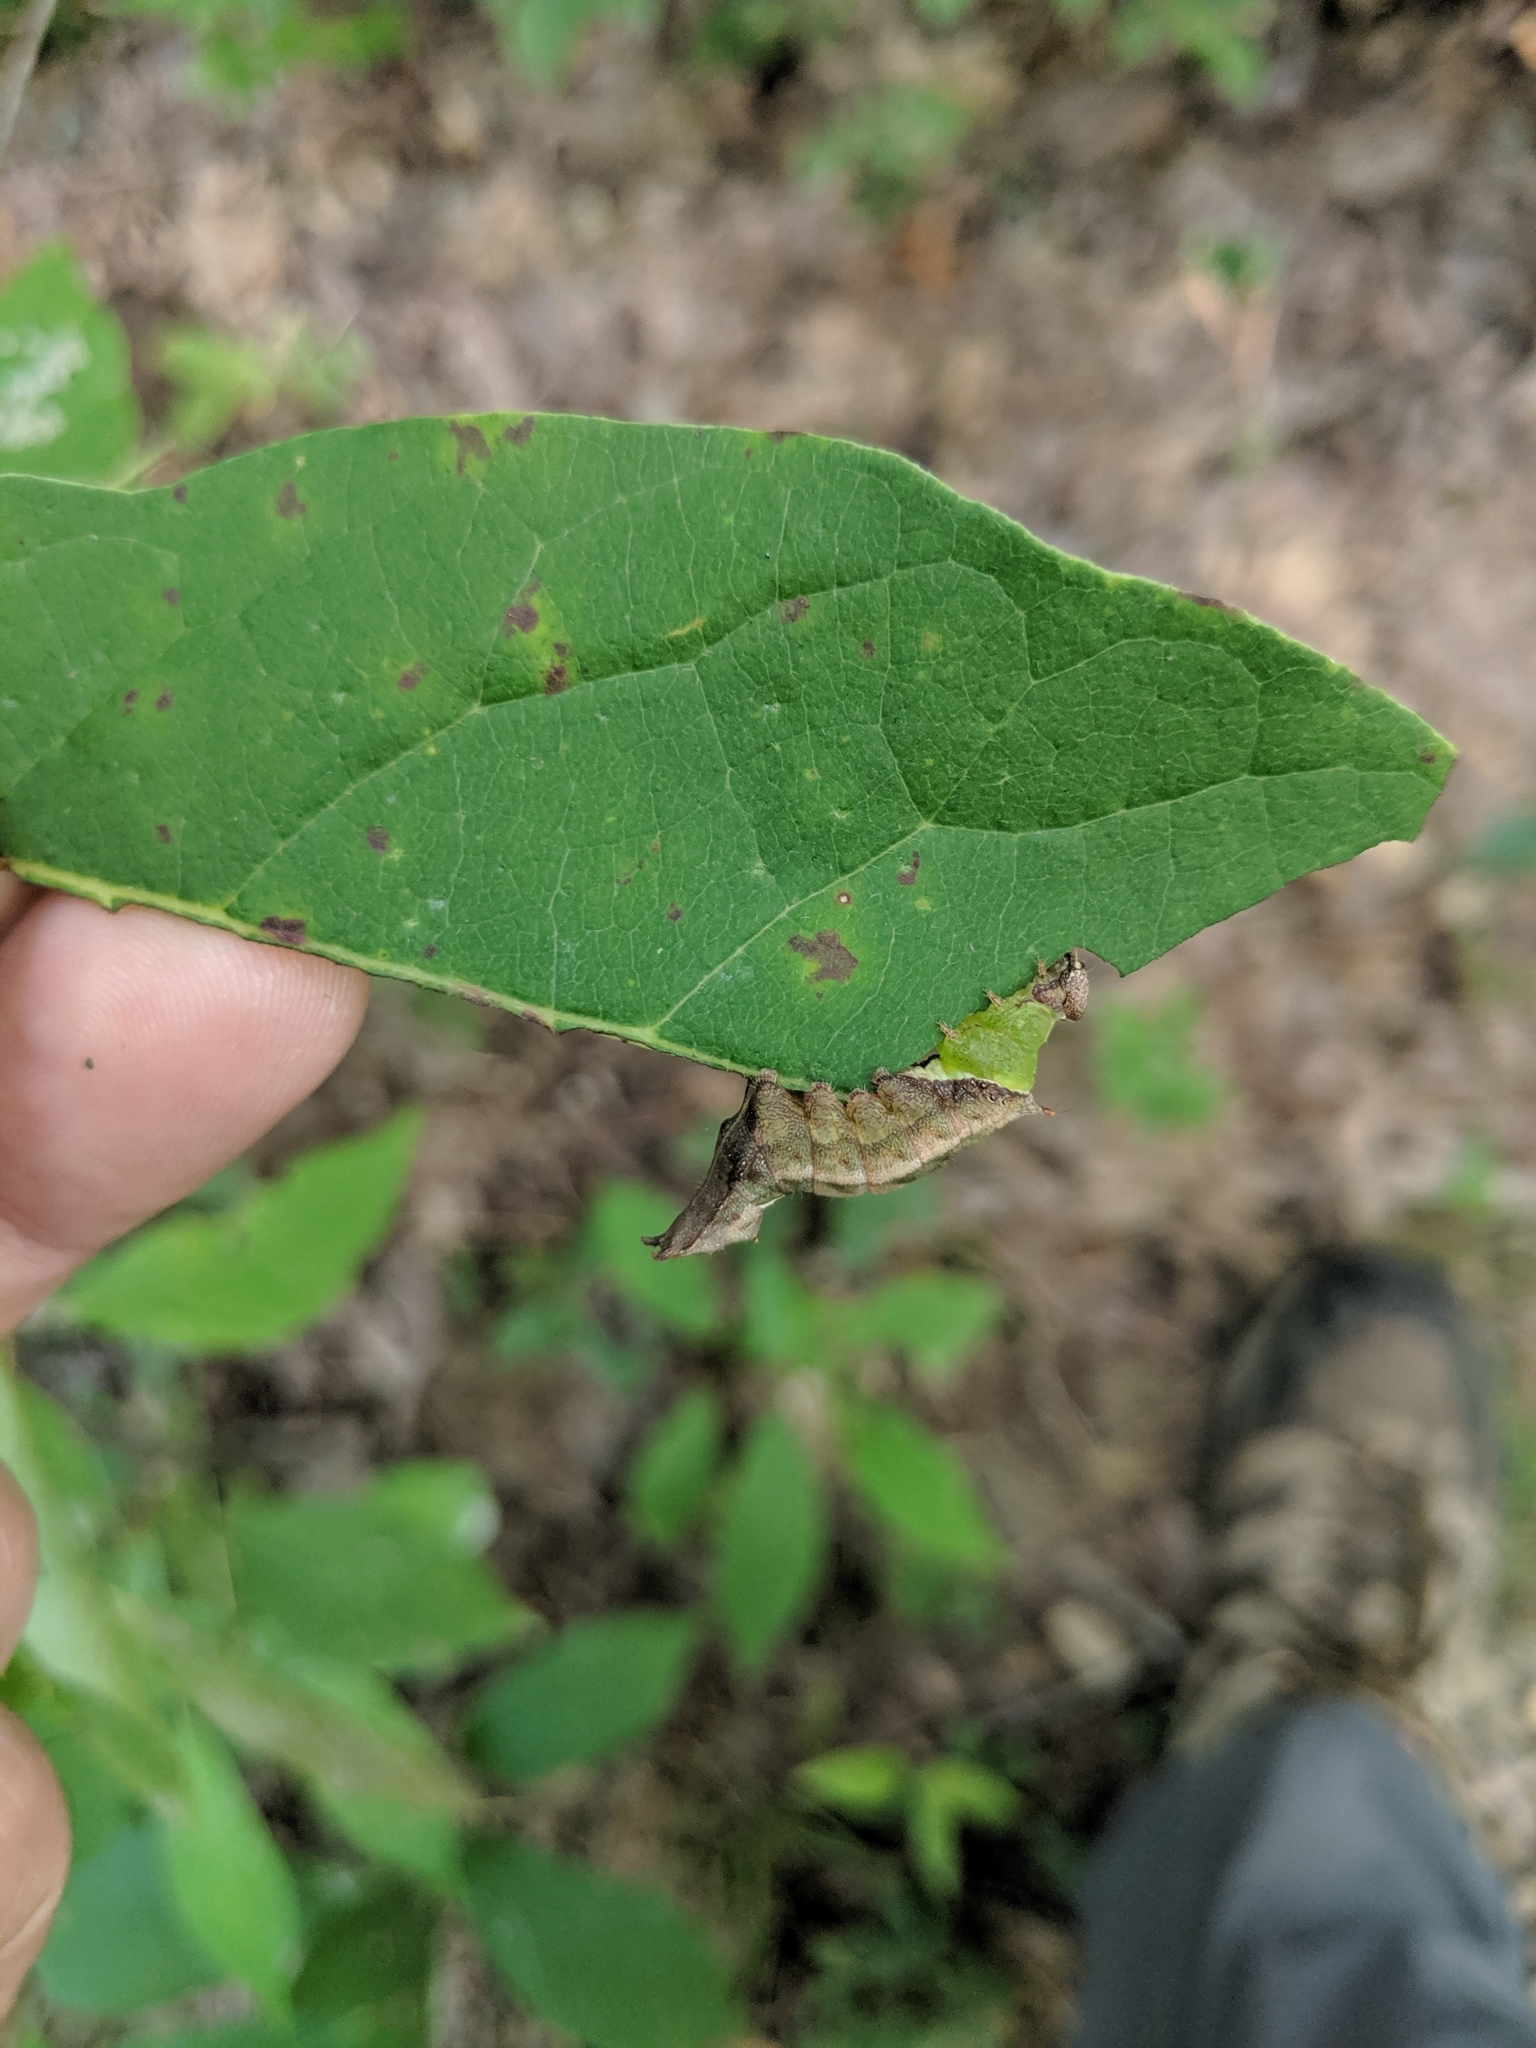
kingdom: Animalia
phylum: Arthropoda
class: Insecta
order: Lepidoptera
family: Notodontidae
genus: Schizura
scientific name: Schizura
